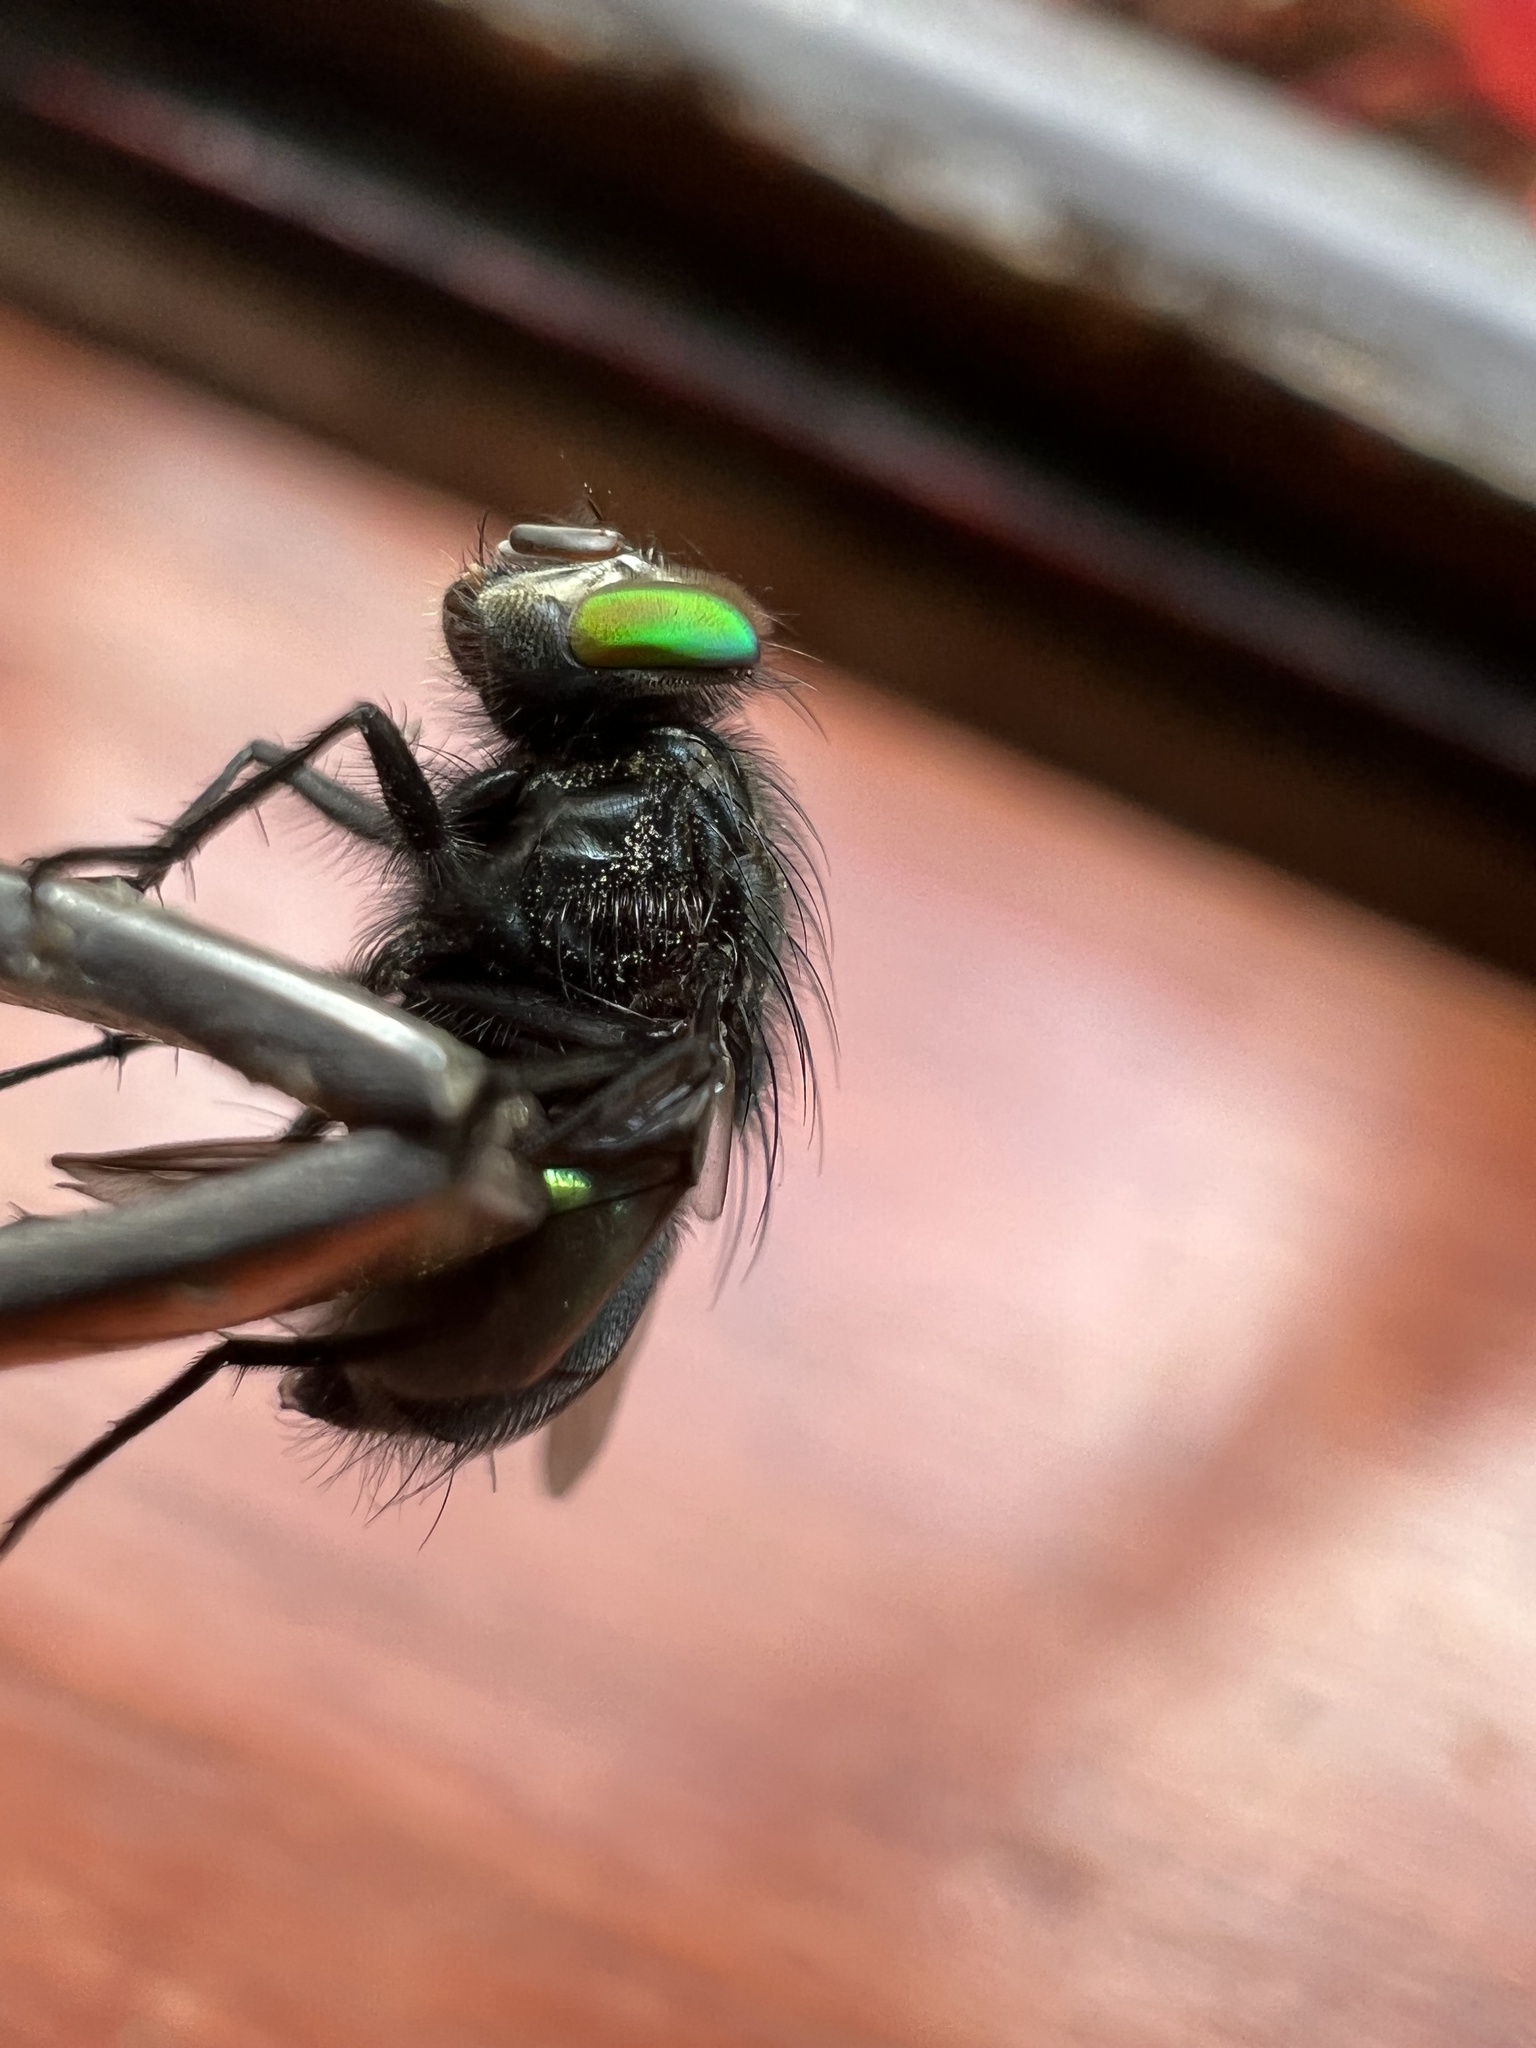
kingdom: Animalia
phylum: Arthropoda
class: Insecta
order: Diptera
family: Calliphoridae
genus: Sarconesia
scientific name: Sarconesia roraima
